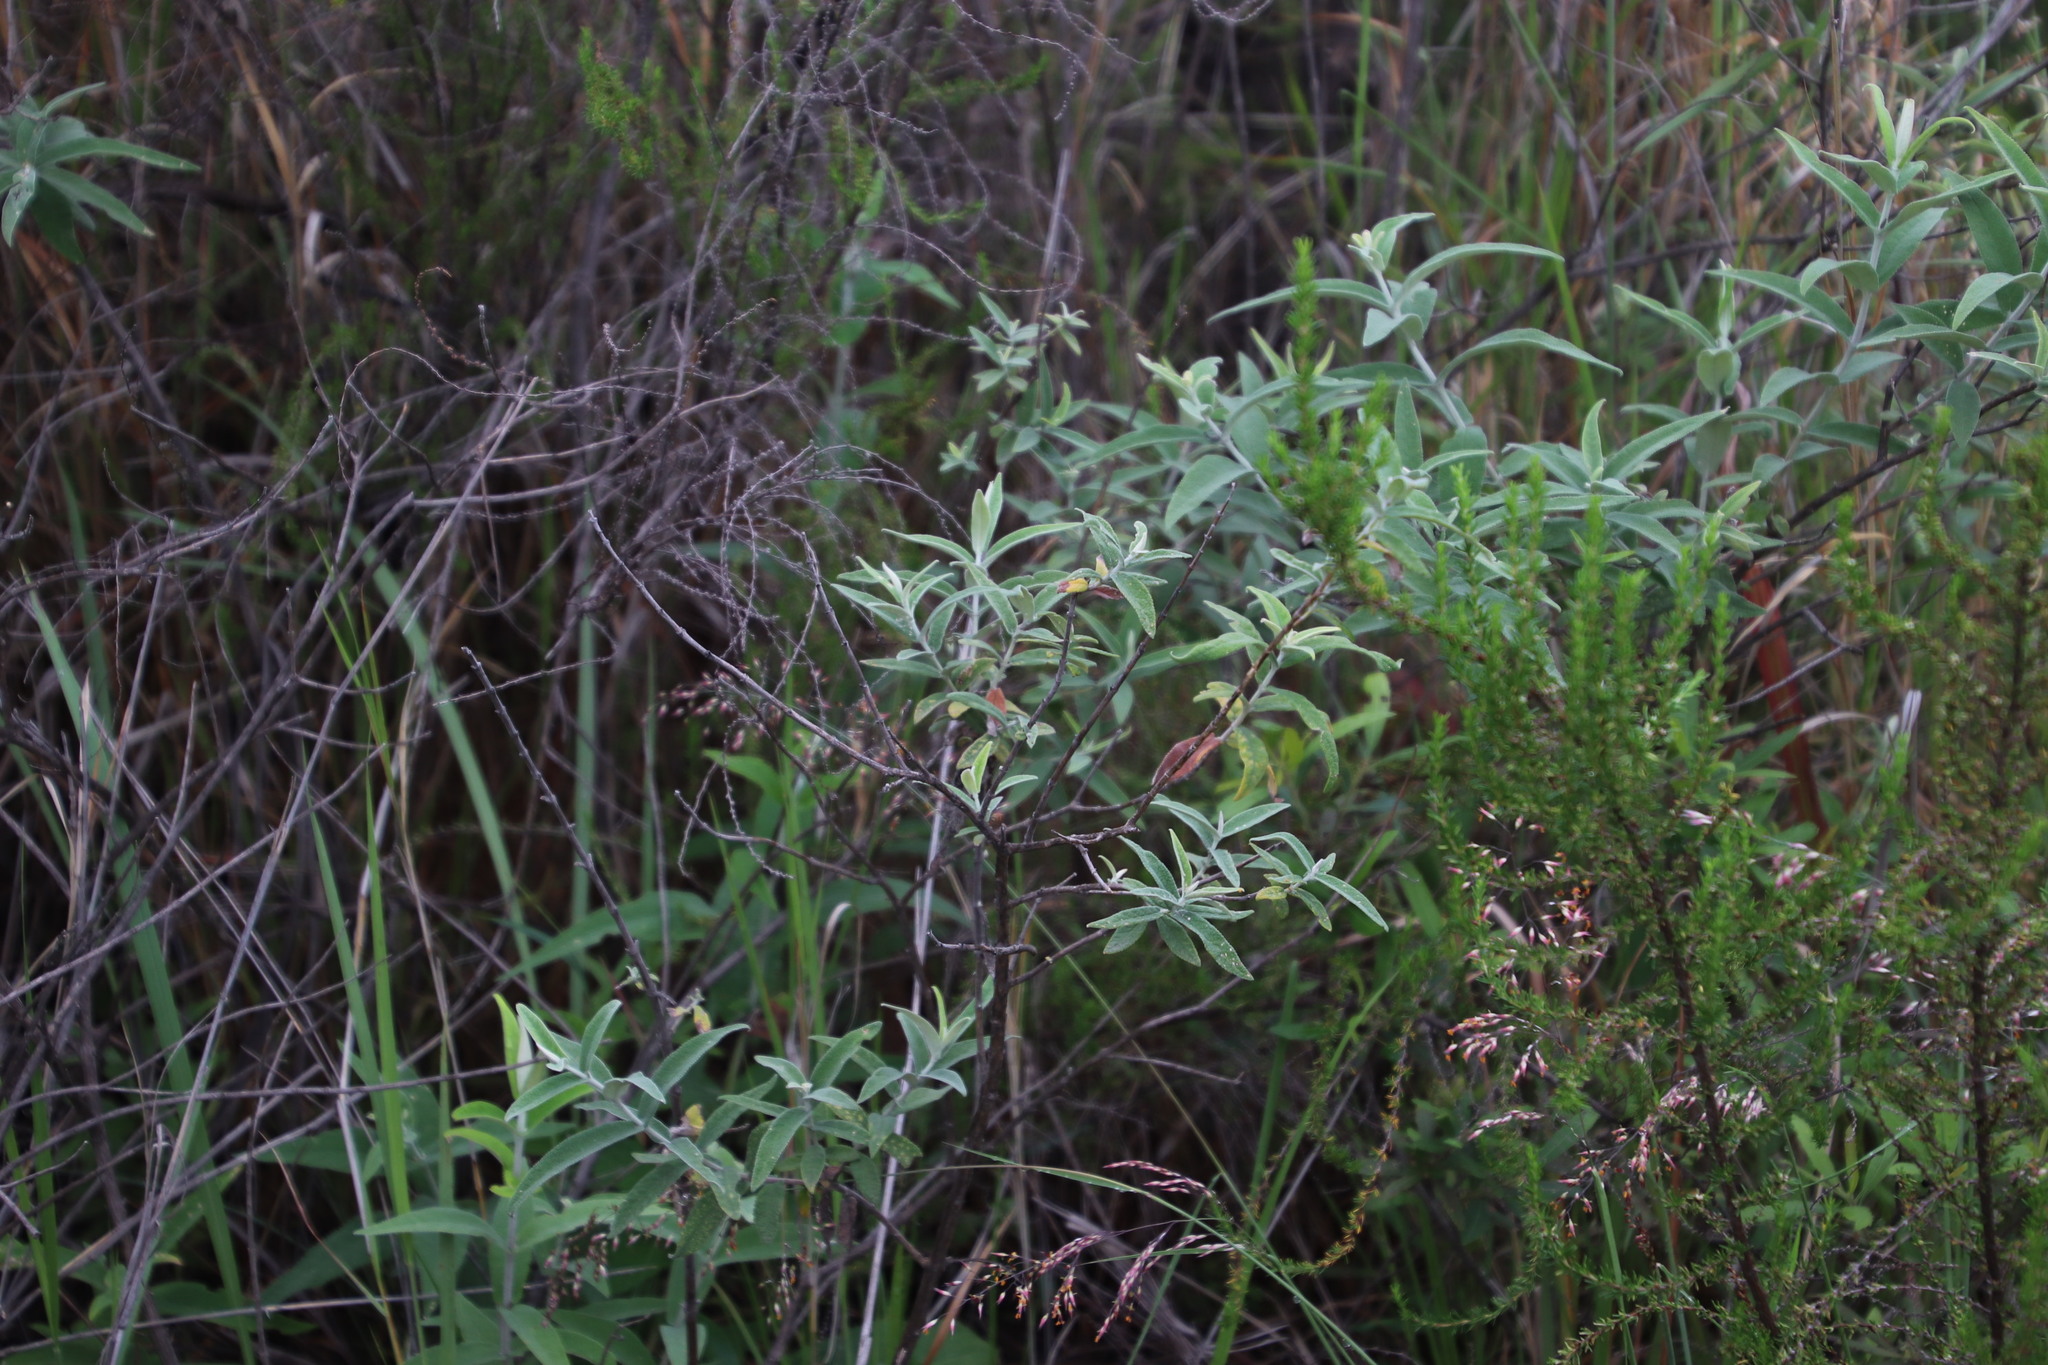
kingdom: Plantae
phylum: Tracheophyta
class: Magnoliopsida
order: Lamiales
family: Scrophulariaceae
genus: Buddleja
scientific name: Buddleja salviifolia
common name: Sagewood
